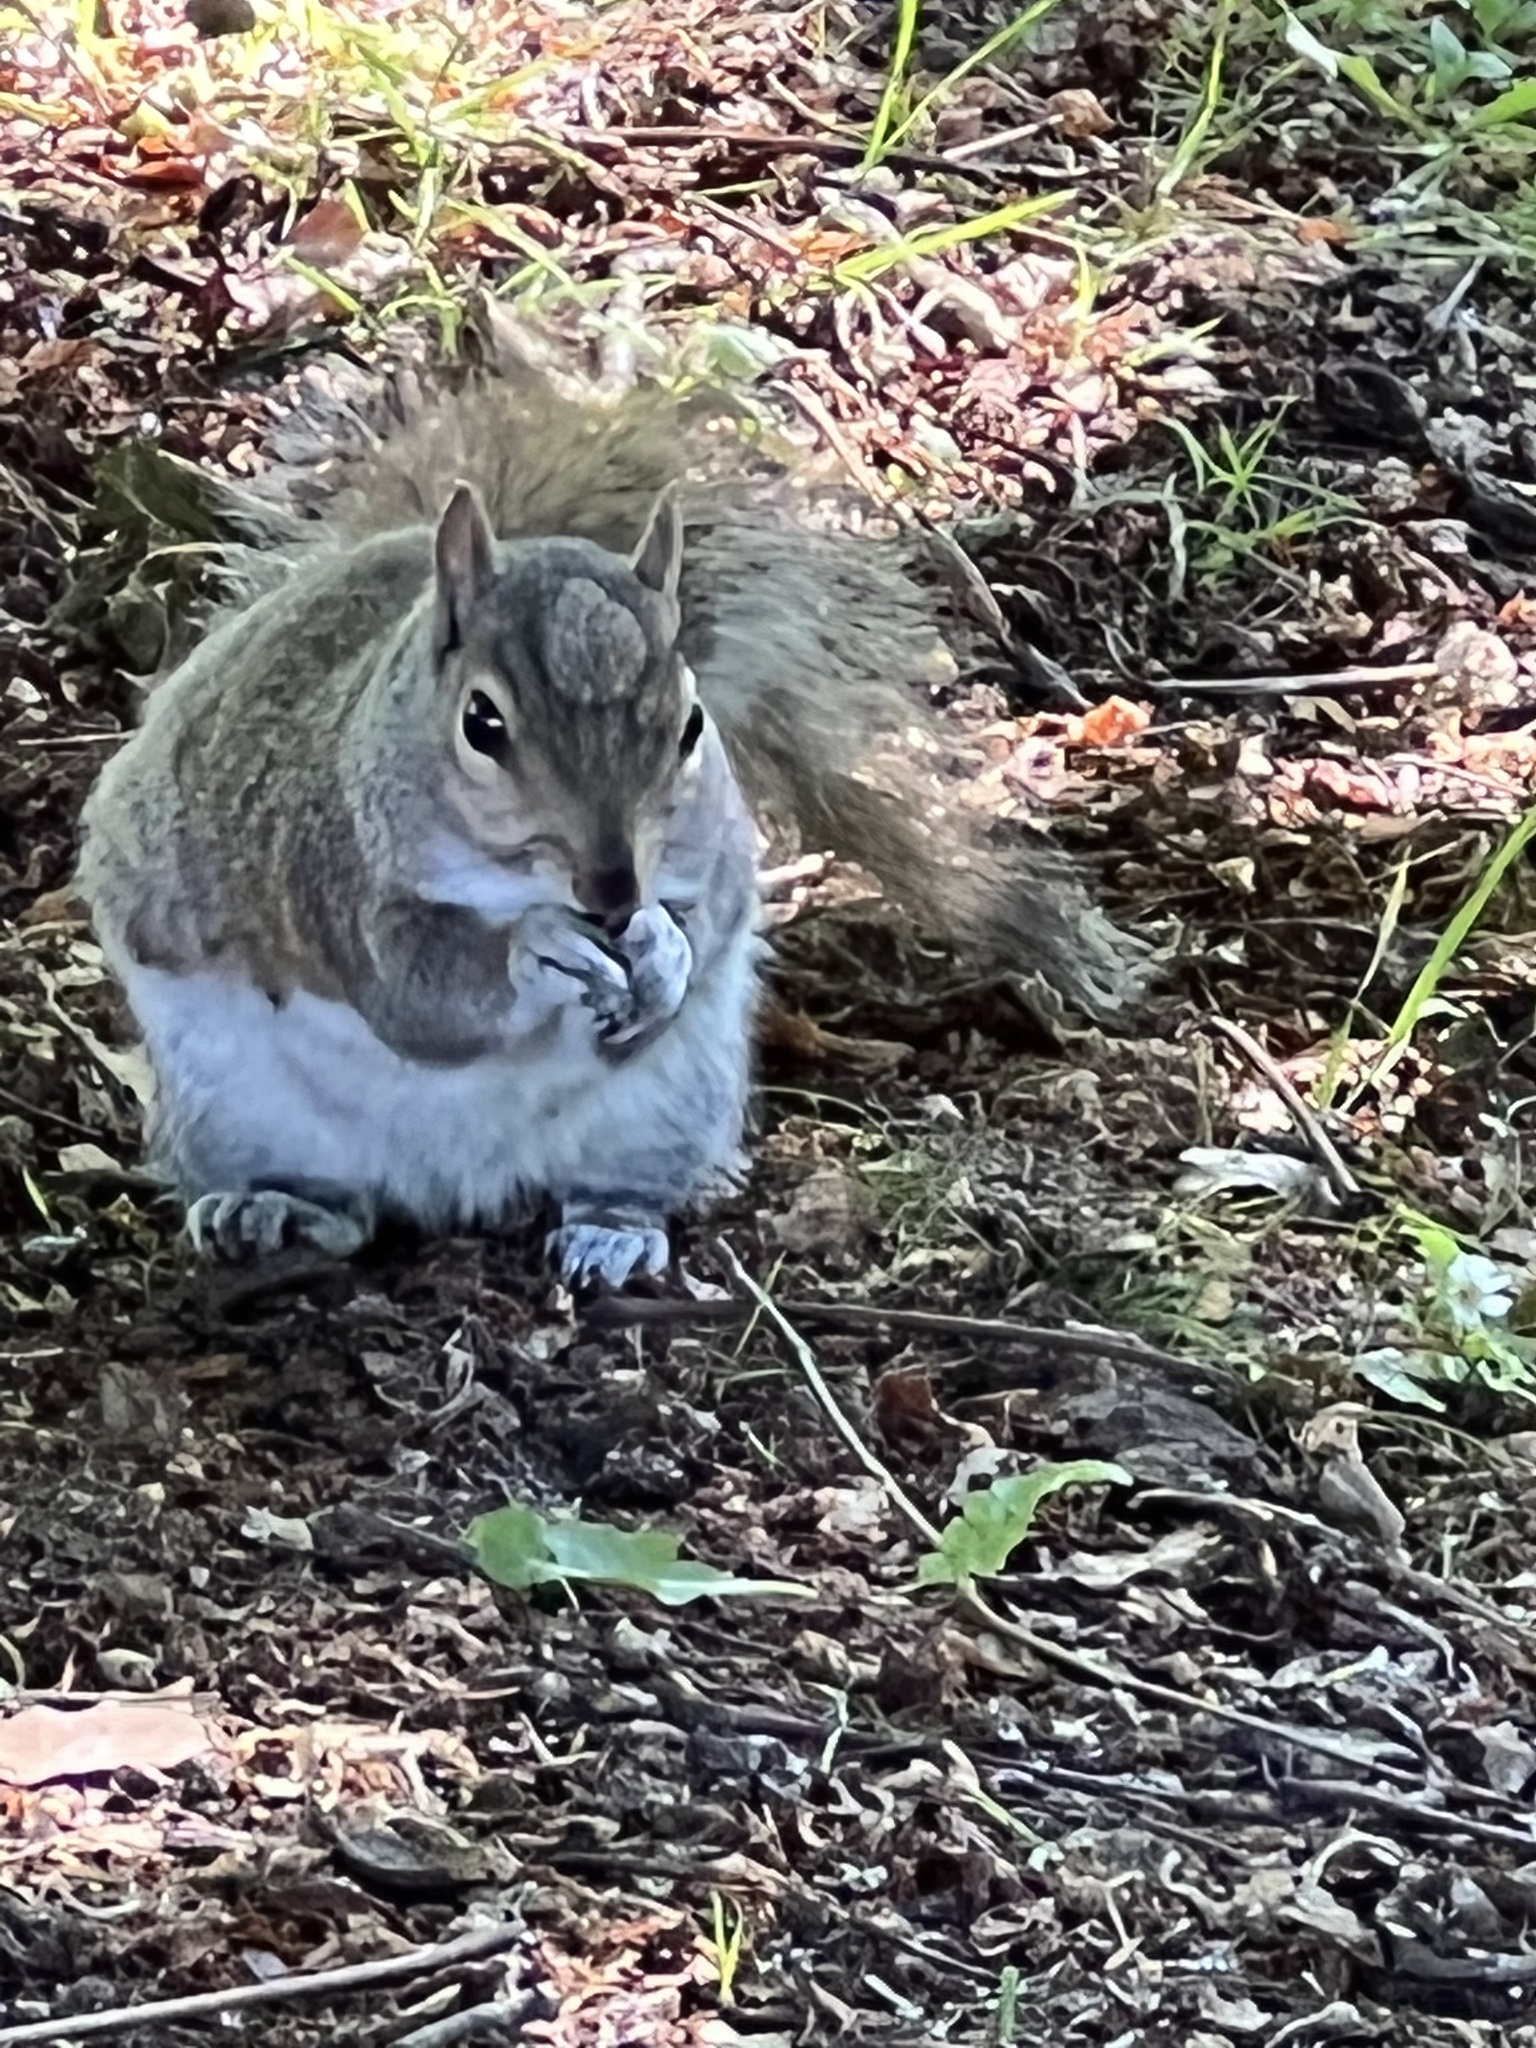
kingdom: Animalia
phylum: Chordata
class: Mammalia
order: Rodentia
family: Sciuridae
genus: Sciurus
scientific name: Sciurus carolinensis
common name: Eastern gray squirrel
